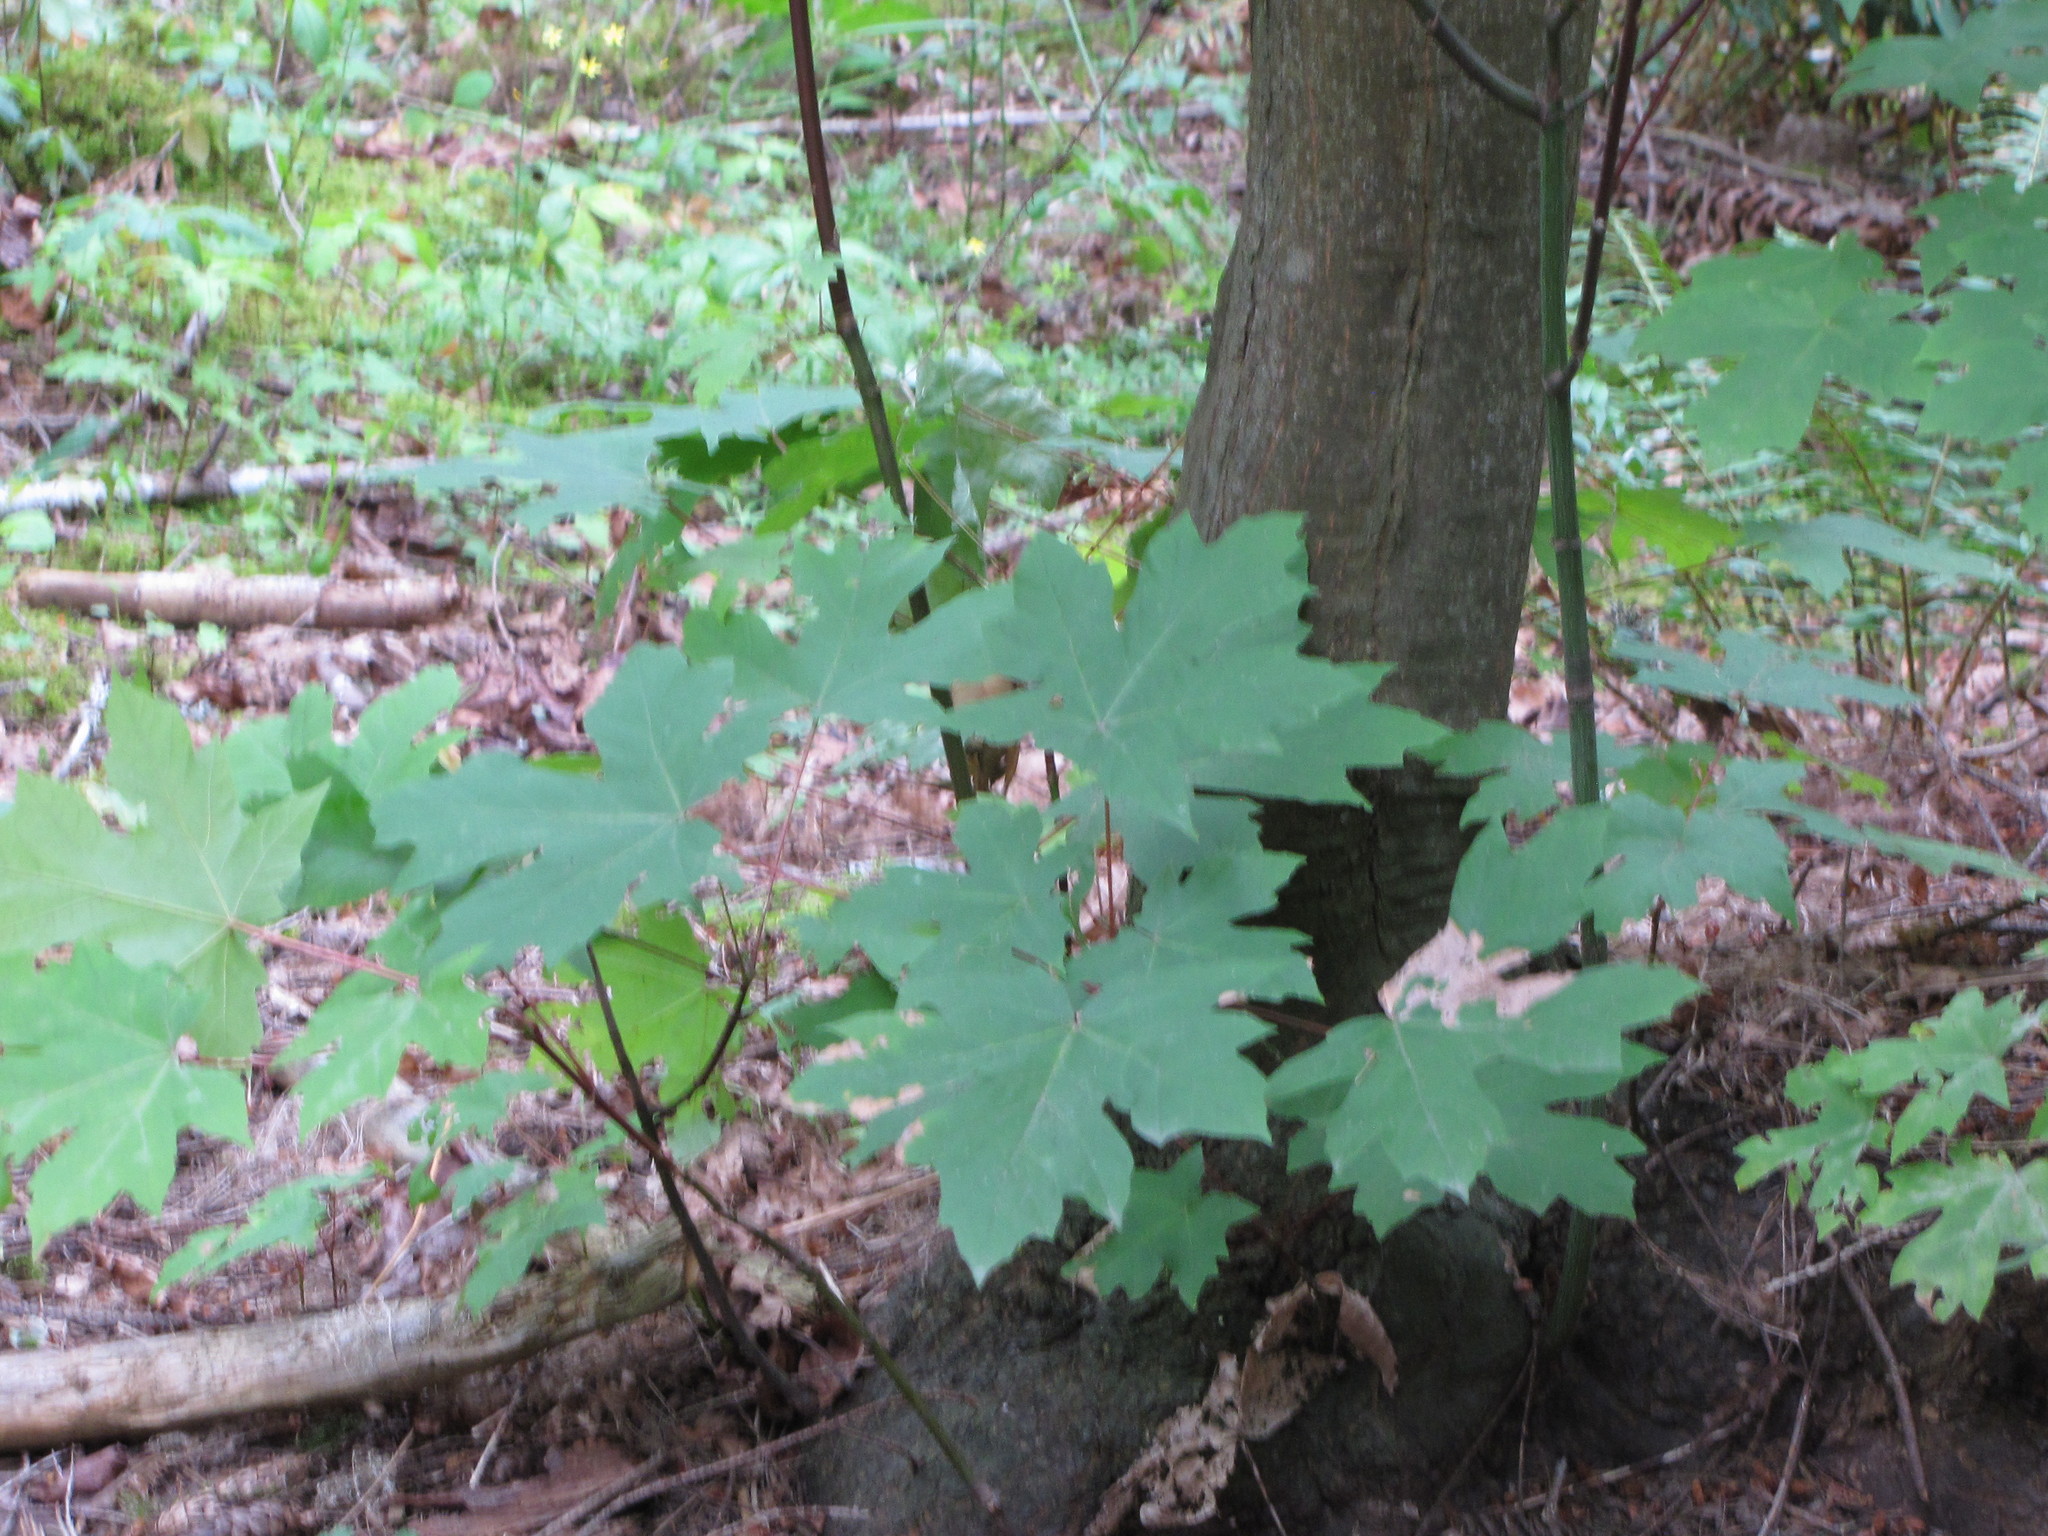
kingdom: Plantae
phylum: Tracheophyta
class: Magnoliopsida
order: Sapindales
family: Sapindaceae
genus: Acer
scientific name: Acer macrophyllum
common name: Oregon maple
